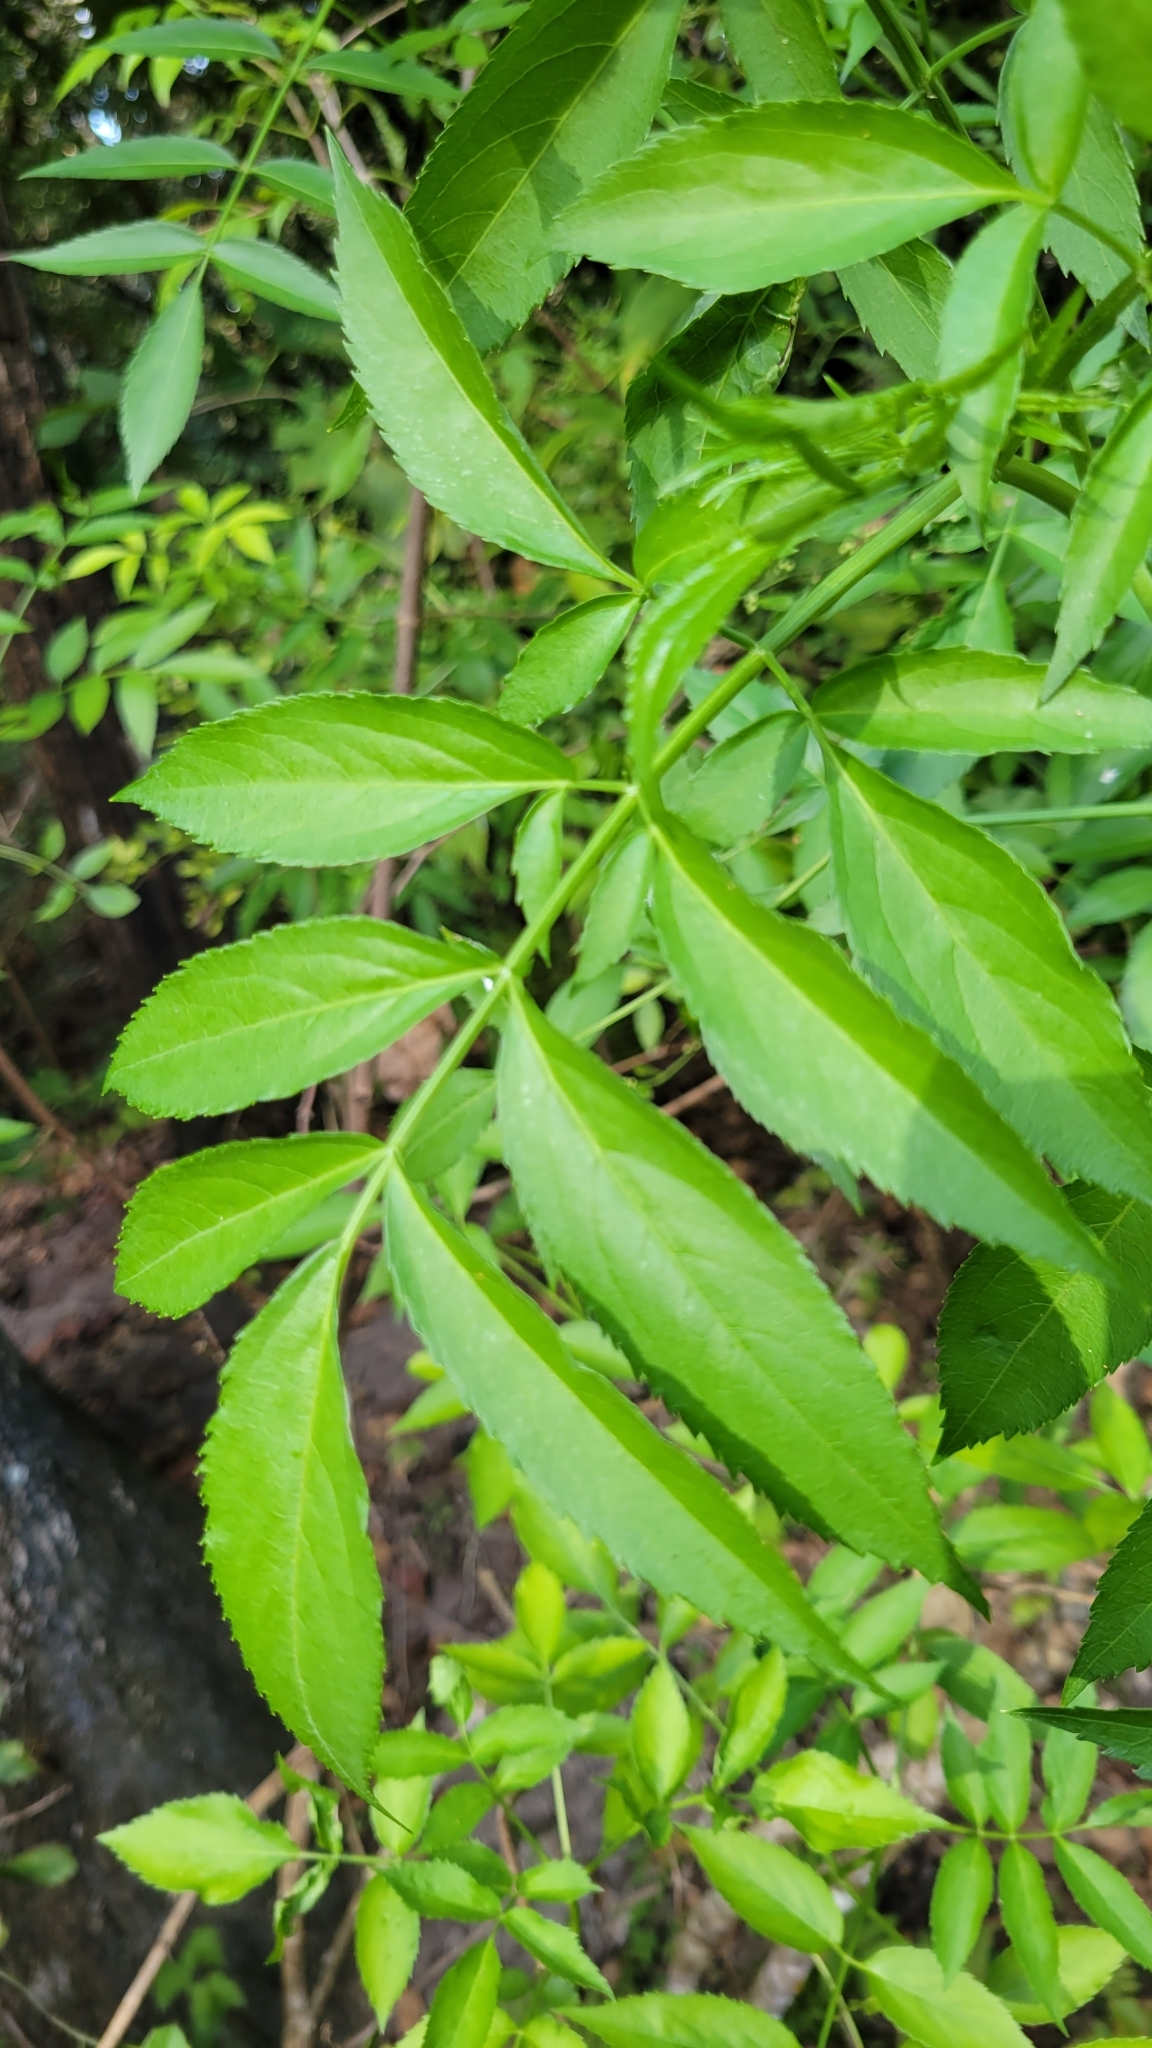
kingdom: Plantae
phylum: Tracheophyta
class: Magnoliopsida
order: Dipsacales
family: Viburnaceae
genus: Sambucus
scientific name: Sambucus canadensis
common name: American elder
